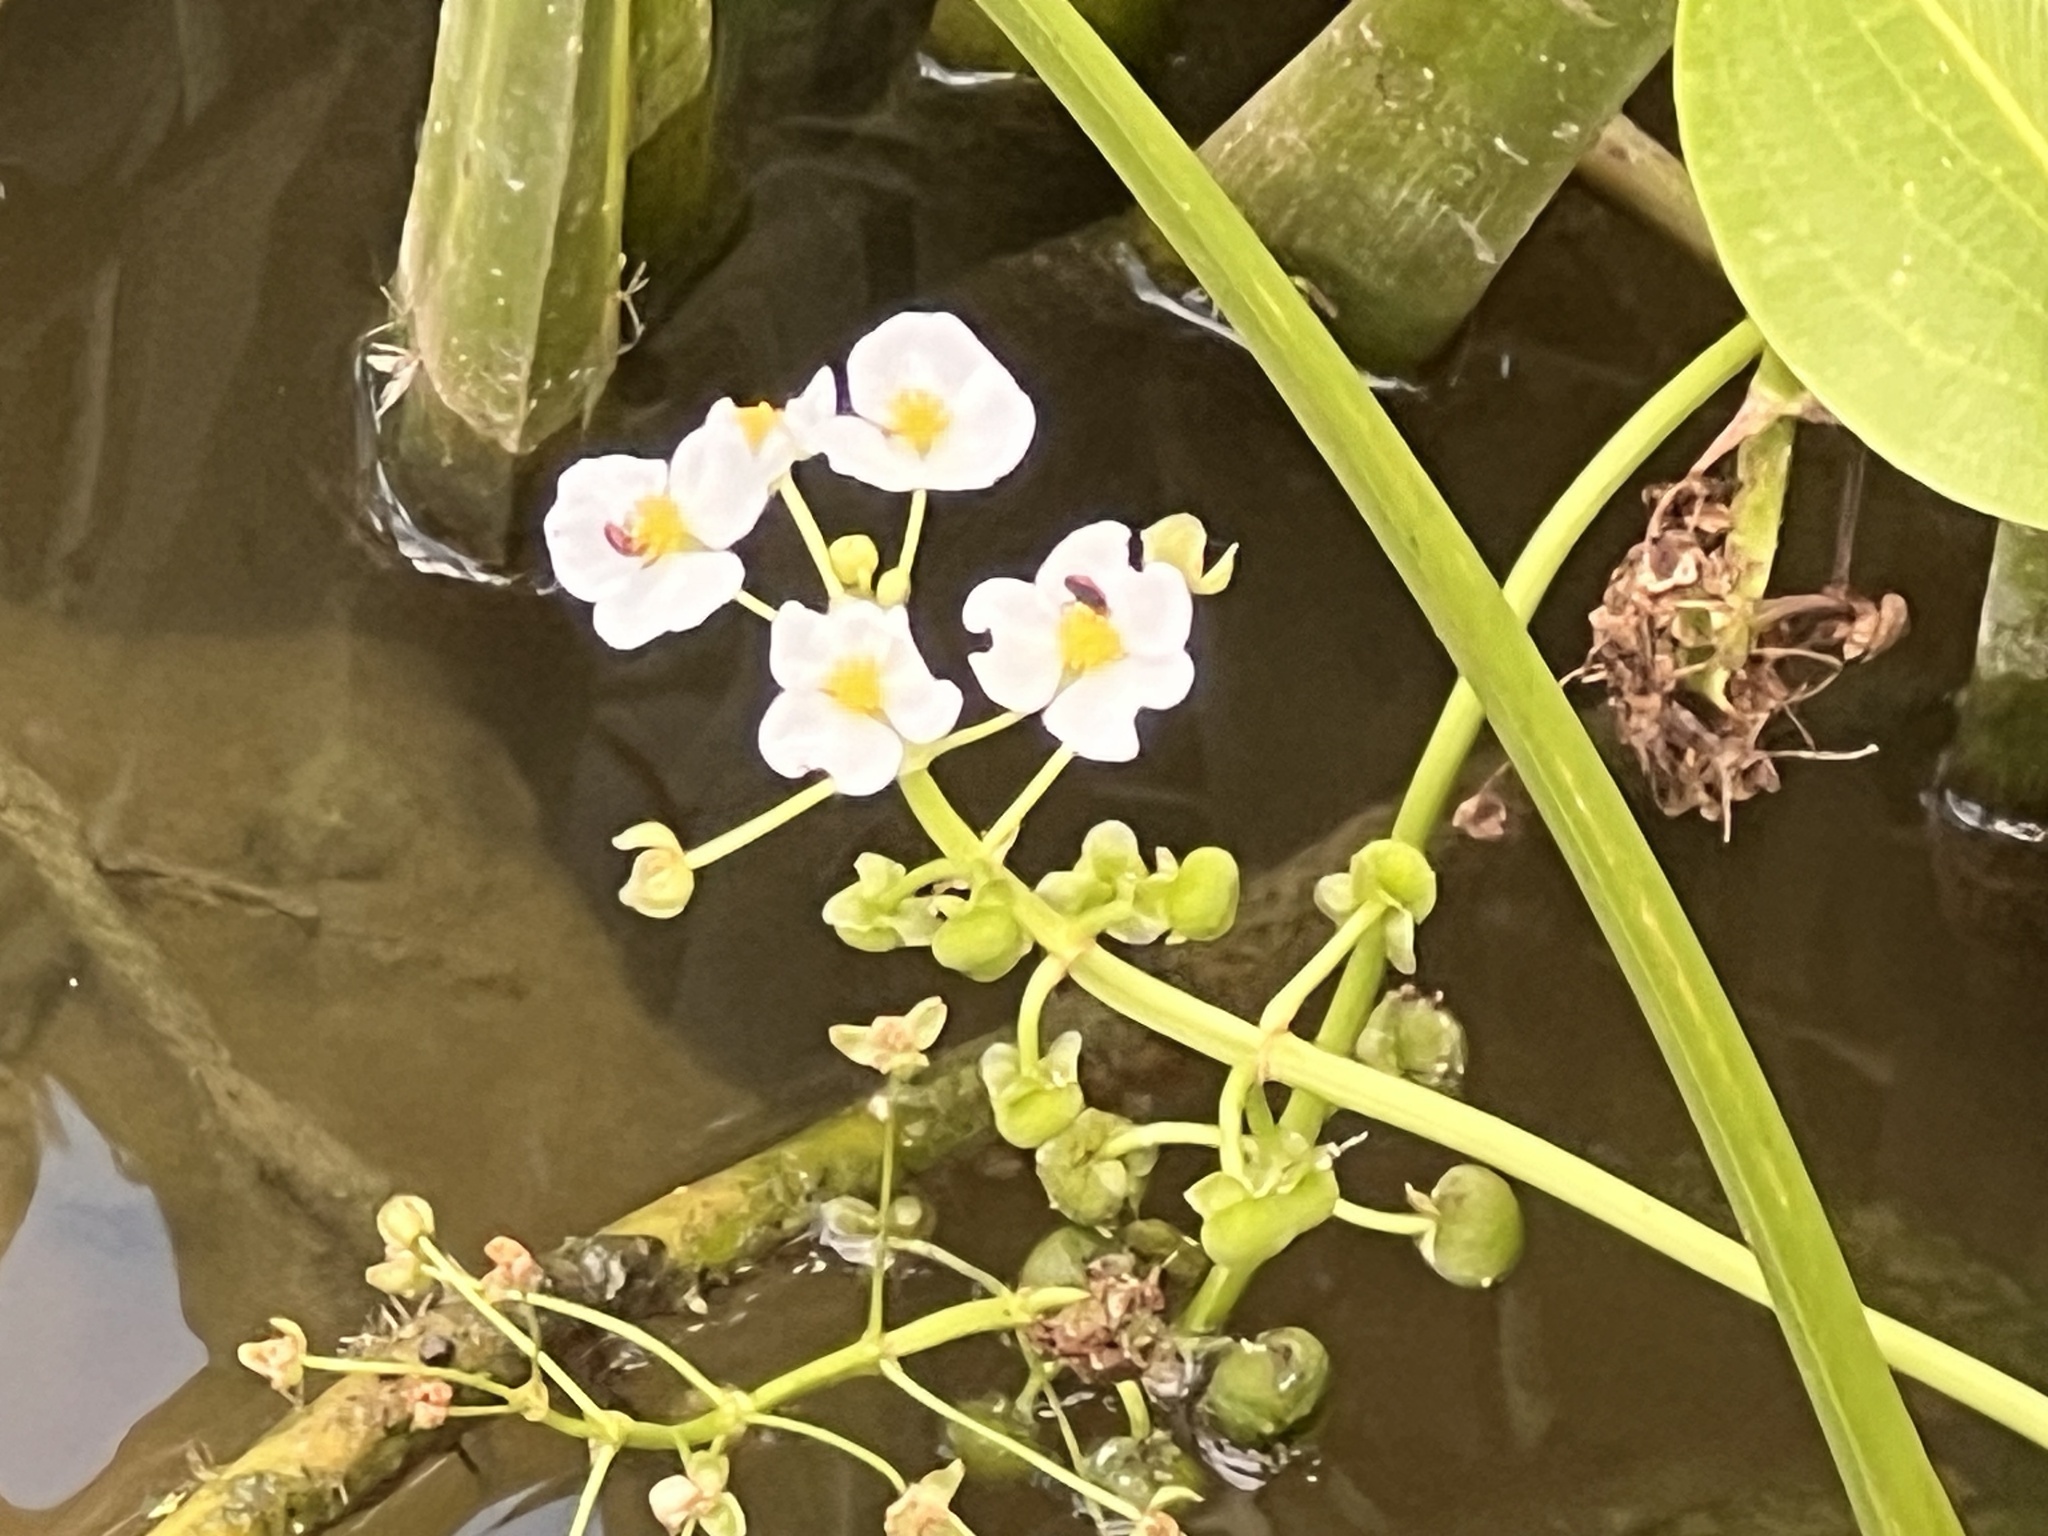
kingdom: Plantae
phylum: Tracheophyta
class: Liliopsida
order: Alismatales
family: Alismataceae
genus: Sagittaria
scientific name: Sagittaria platyphylla
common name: Broad-leaf arrowhead
